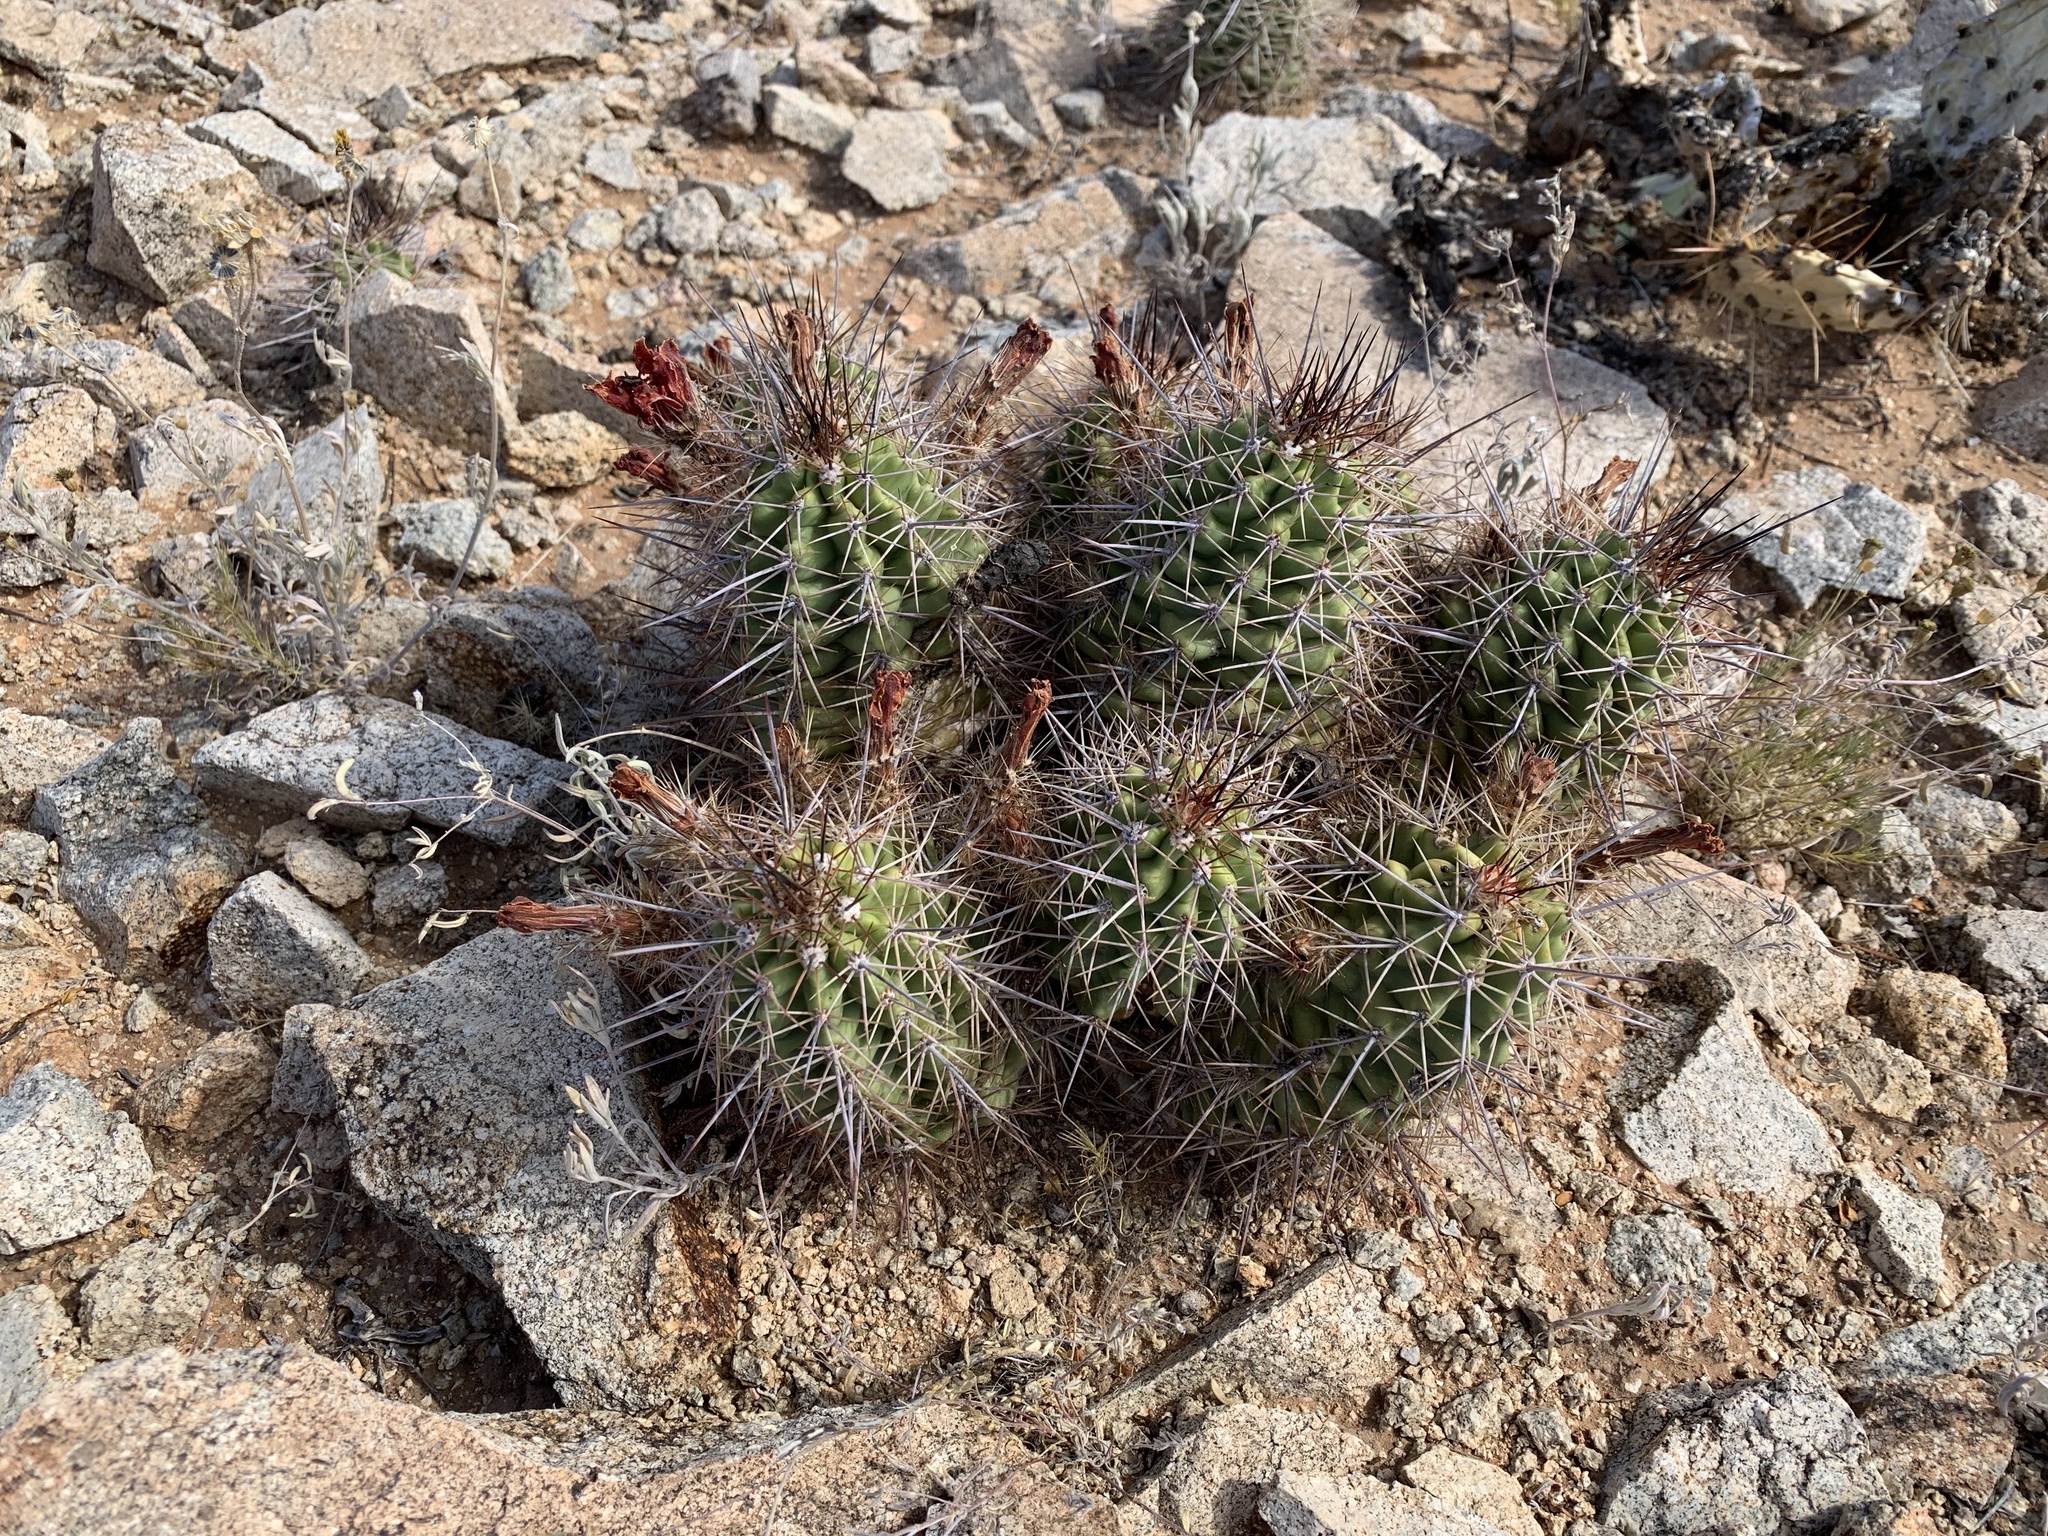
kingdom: Plantae
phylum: Tracheophyta
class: Magnoliopsida
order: Caryophyllales
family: Cactaceae
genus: Echinocereus
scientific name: Echinocereus coccineus
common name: Scarlet hedgehog cactus
